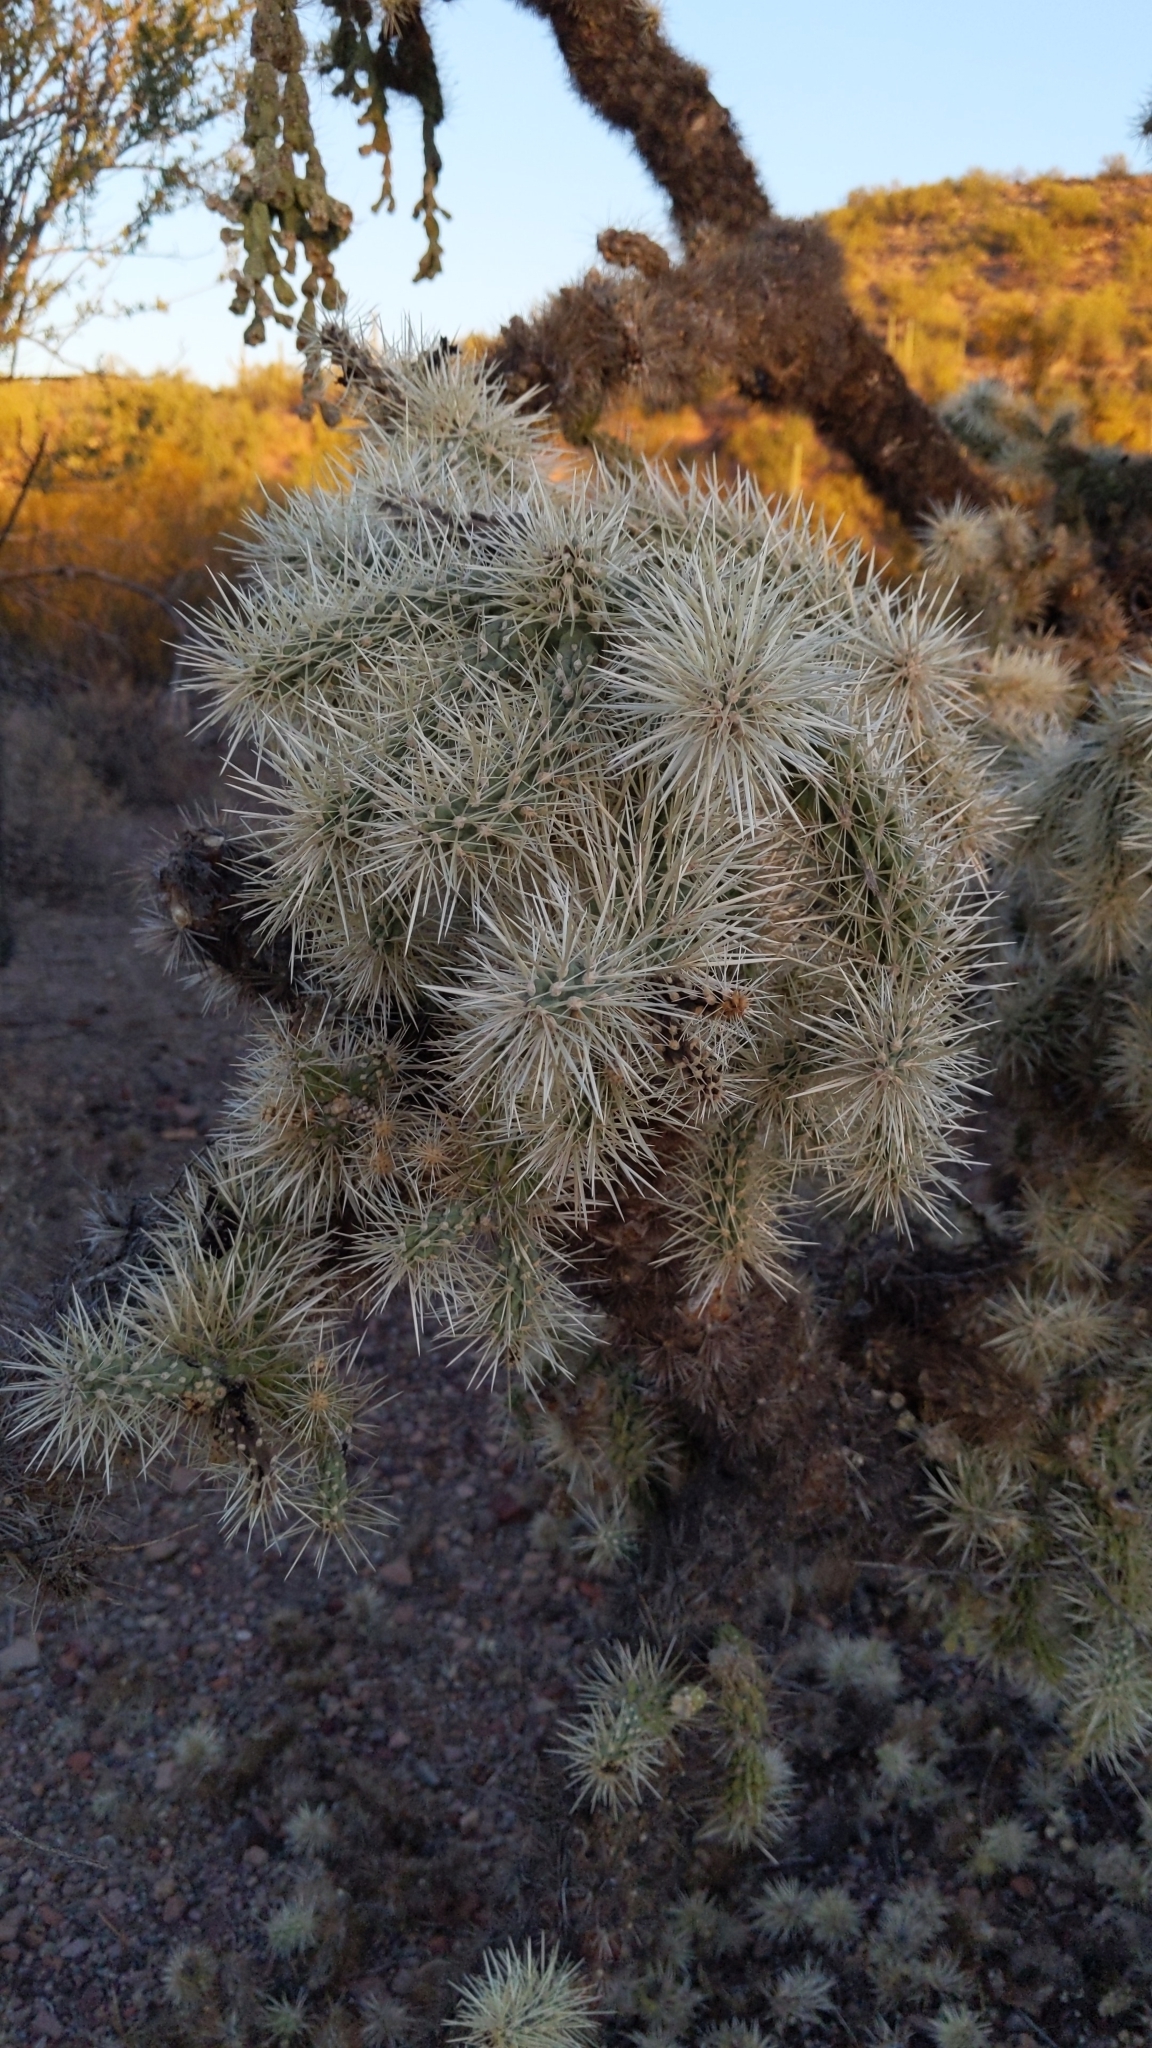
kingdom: Plantae
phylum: Tracheophyta
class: Magnoliopsida
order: Caryophyllales
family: Cactaceae
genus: Cylindropuntia
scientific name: Cylindropuntia fulgida
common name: Jumping cholla
